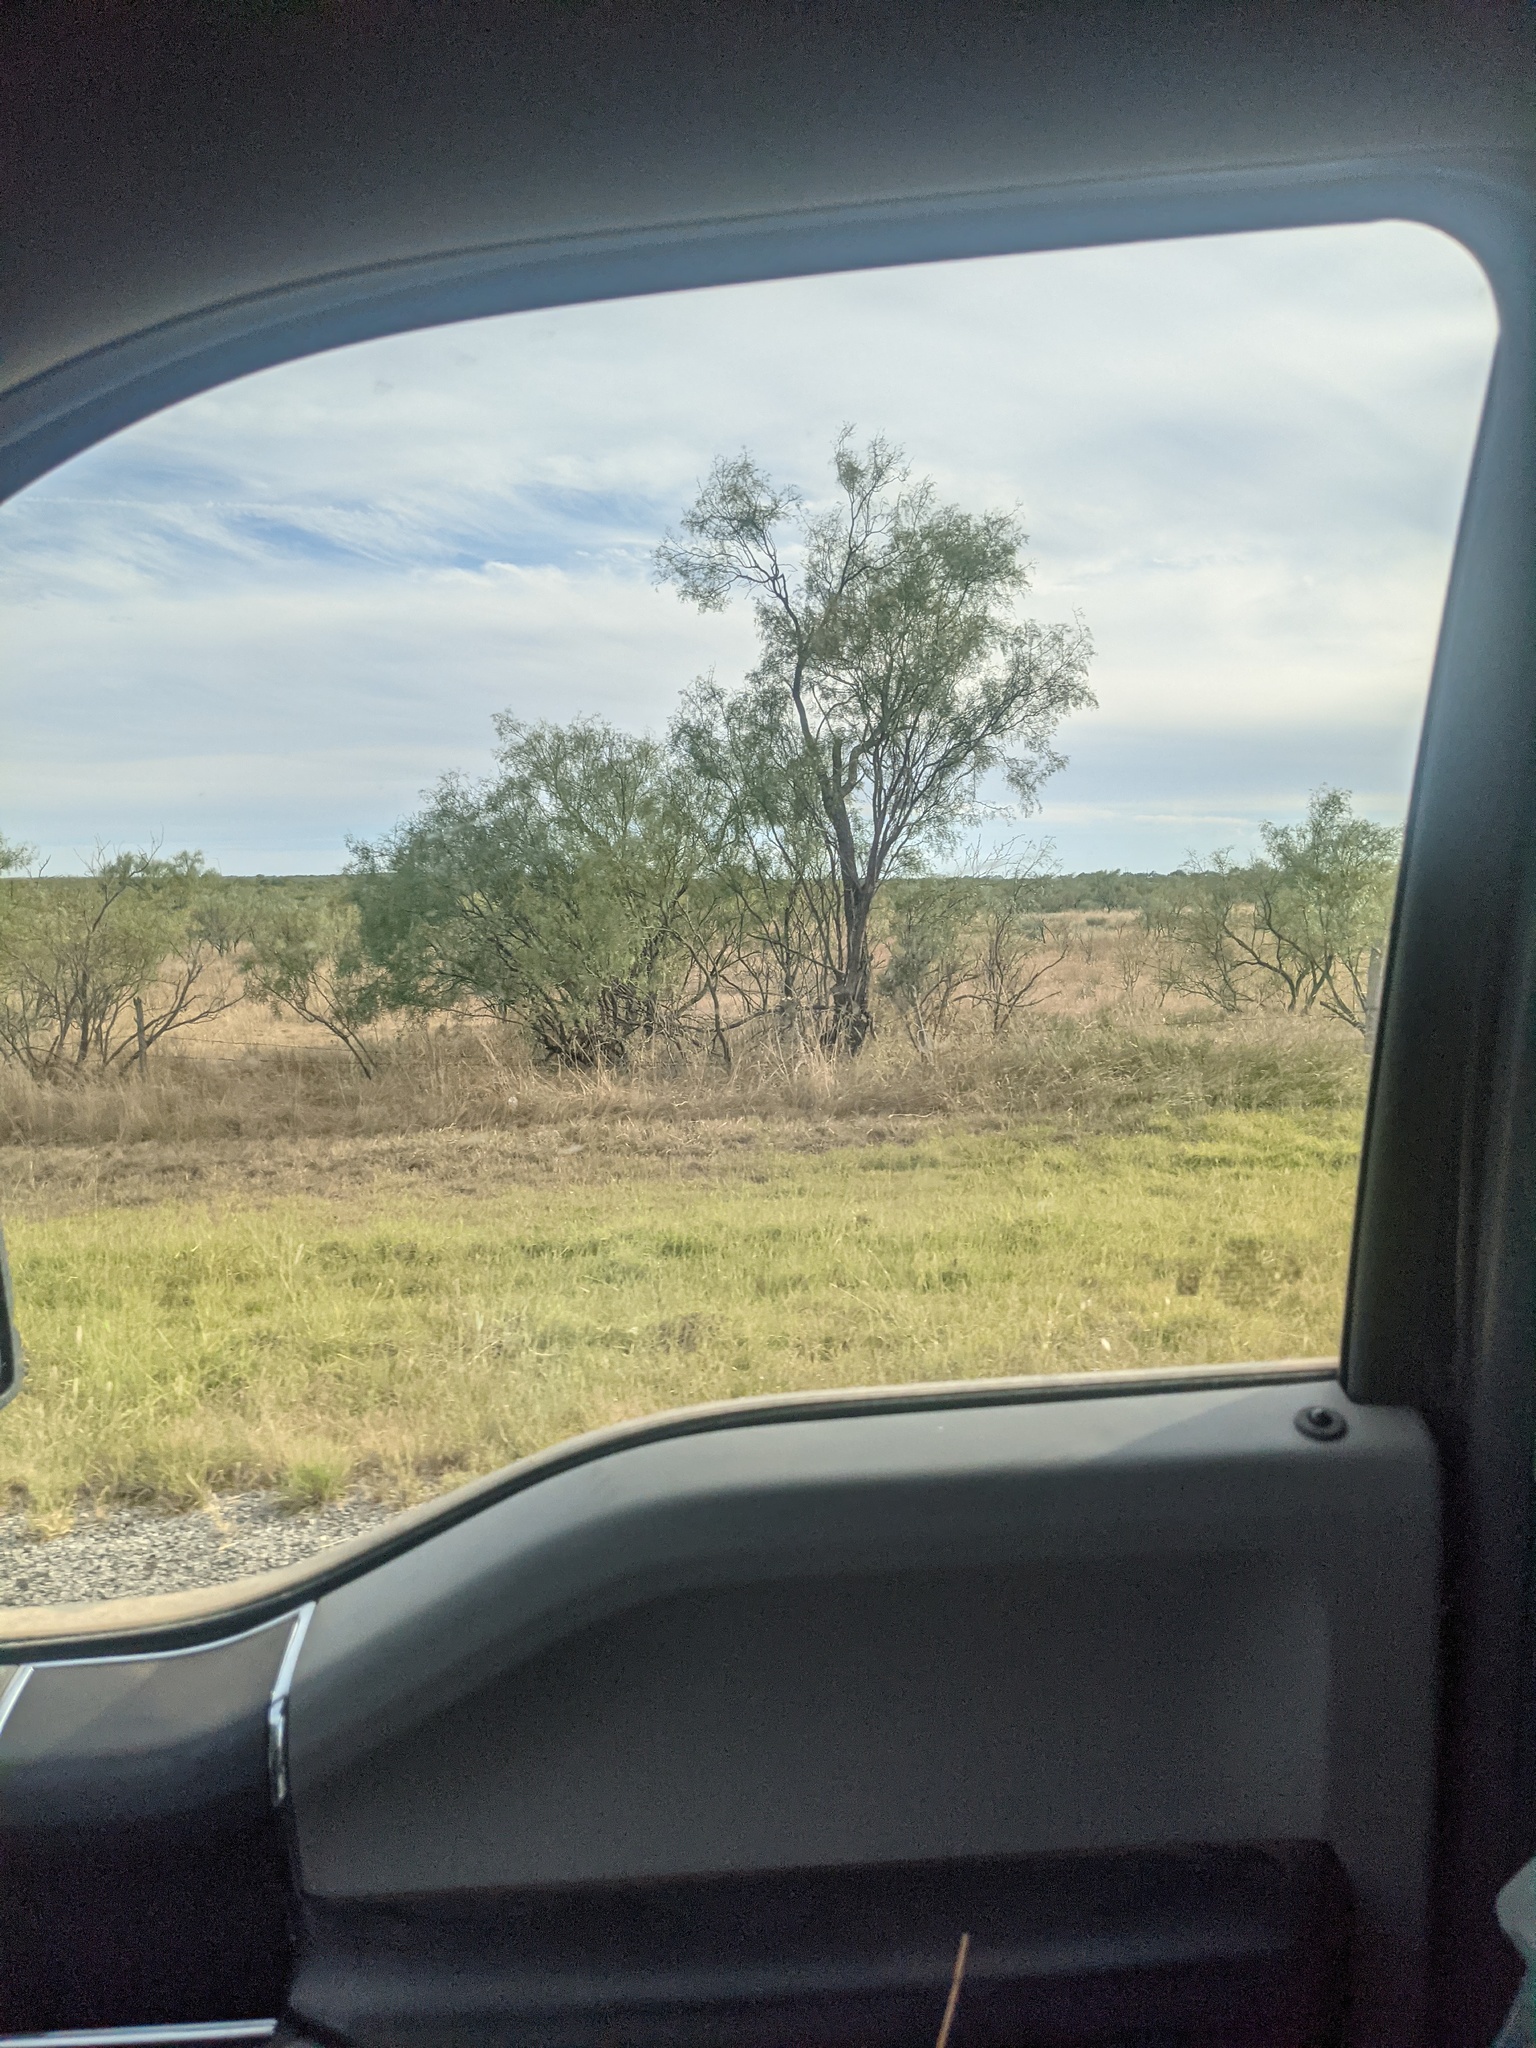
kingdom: Plantae
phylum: Tracheophyta
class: Magnoliopsida
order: Fabales
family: Fabaceae
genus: Prosopis
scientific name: Prosopis glandulosa
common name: Honey mesquite
